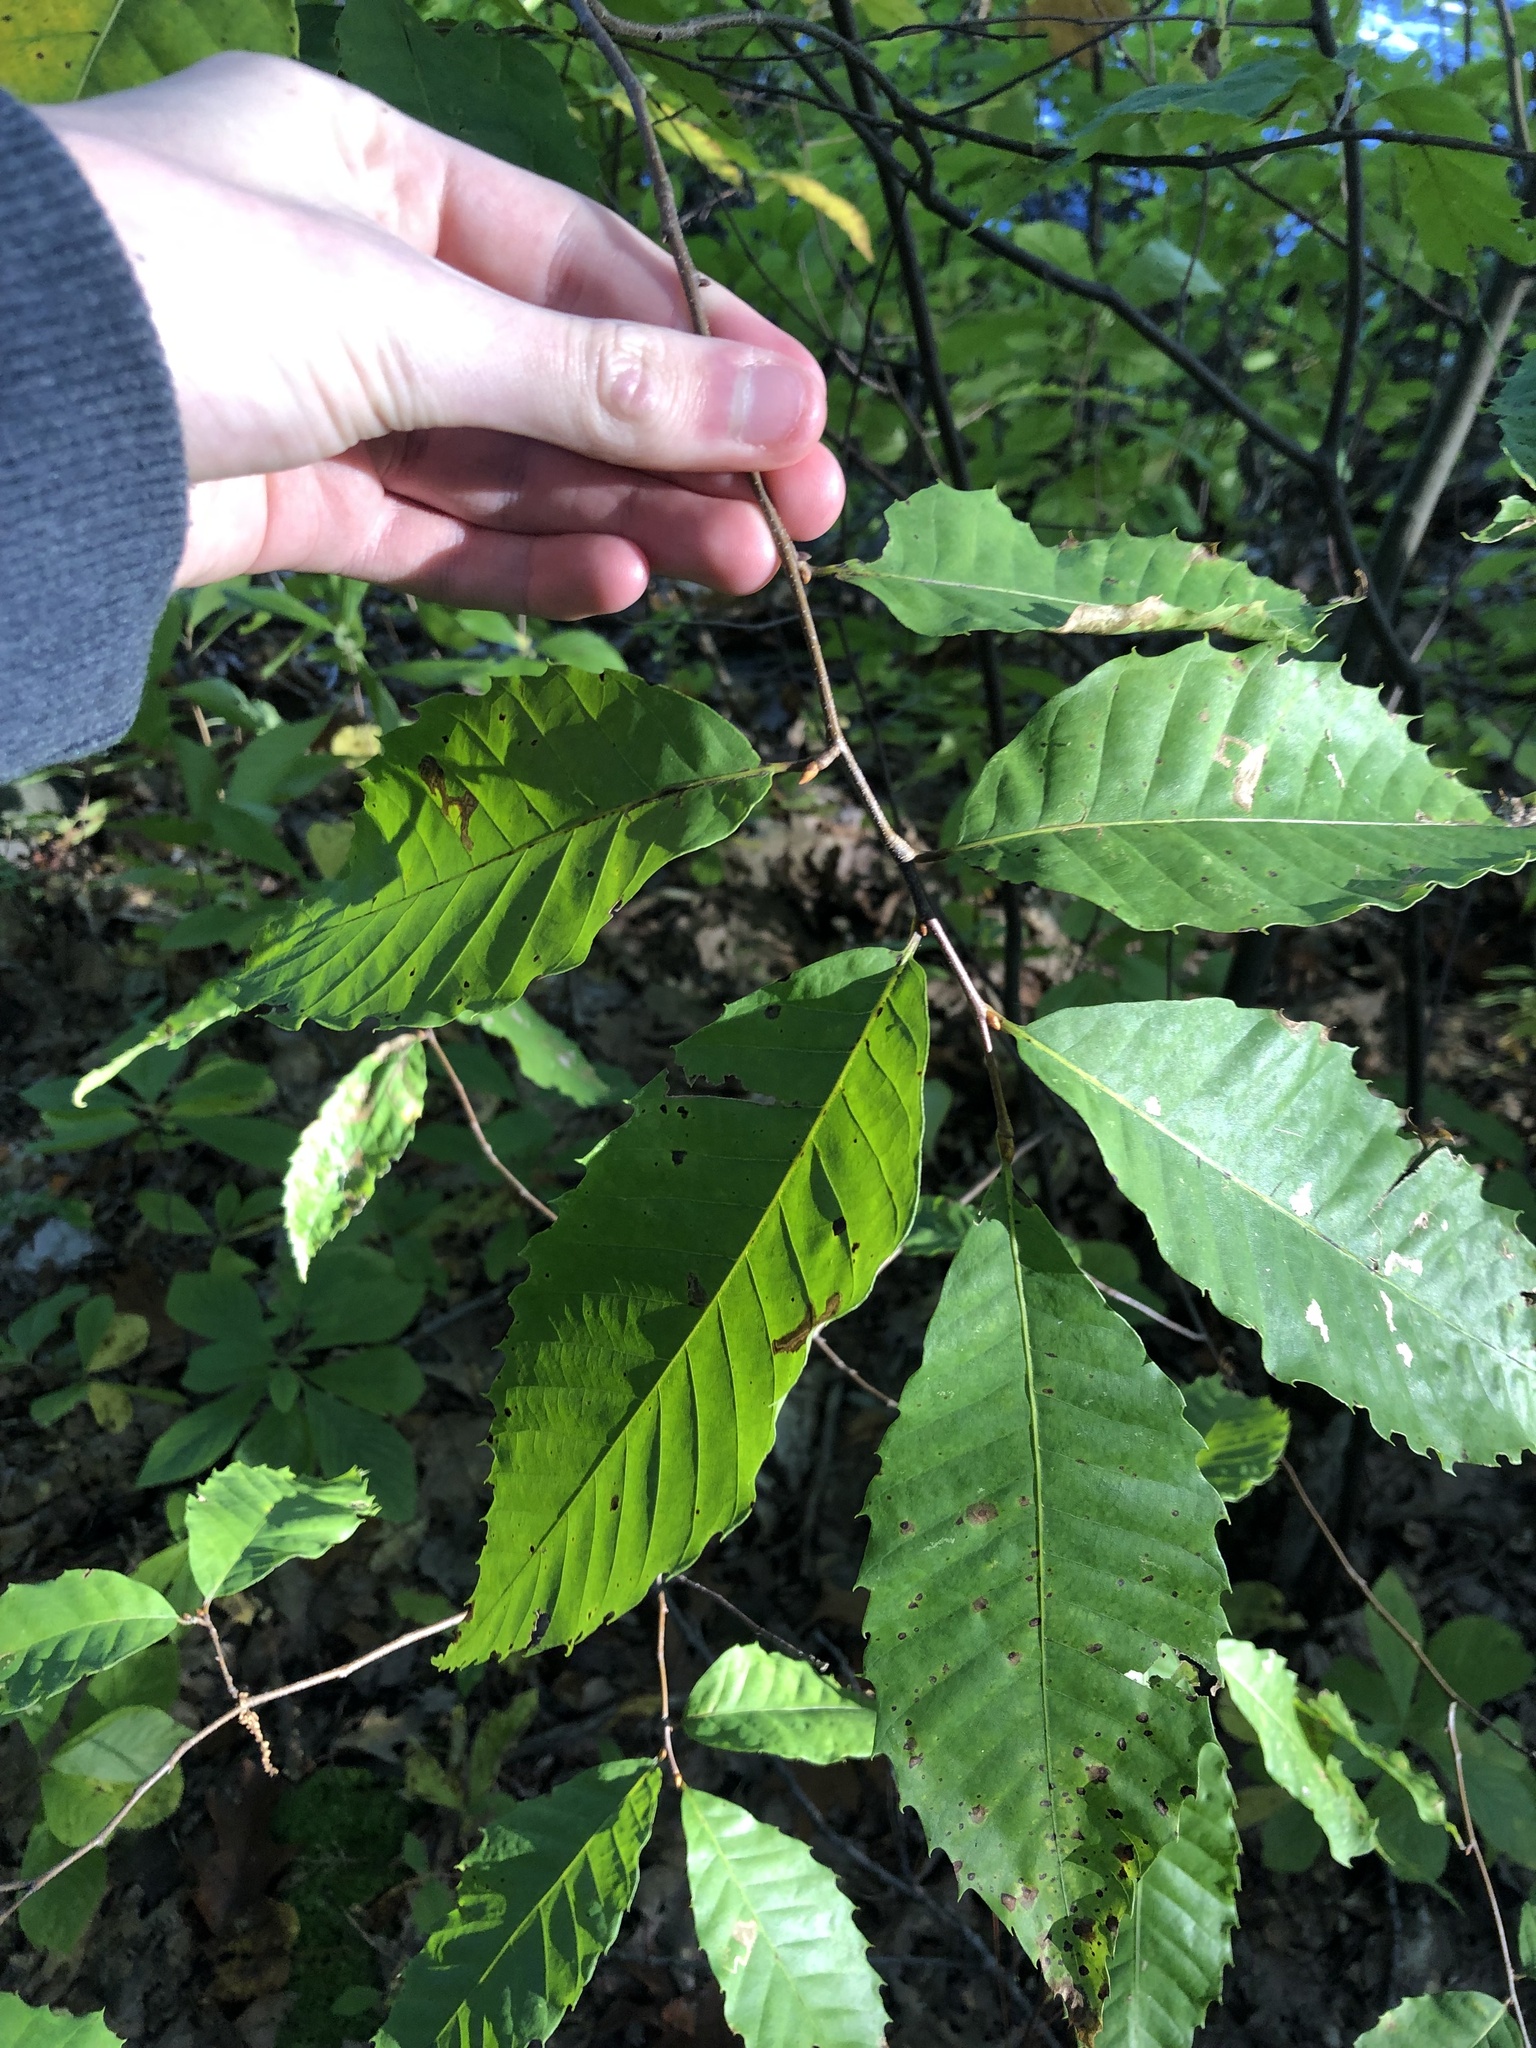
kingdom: Plantae
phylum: Tracheophyta
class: Magnoliopsida
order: Fagales
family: Fagaceae
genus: Castanea
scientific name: Castanea dentata
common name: American chestnut
